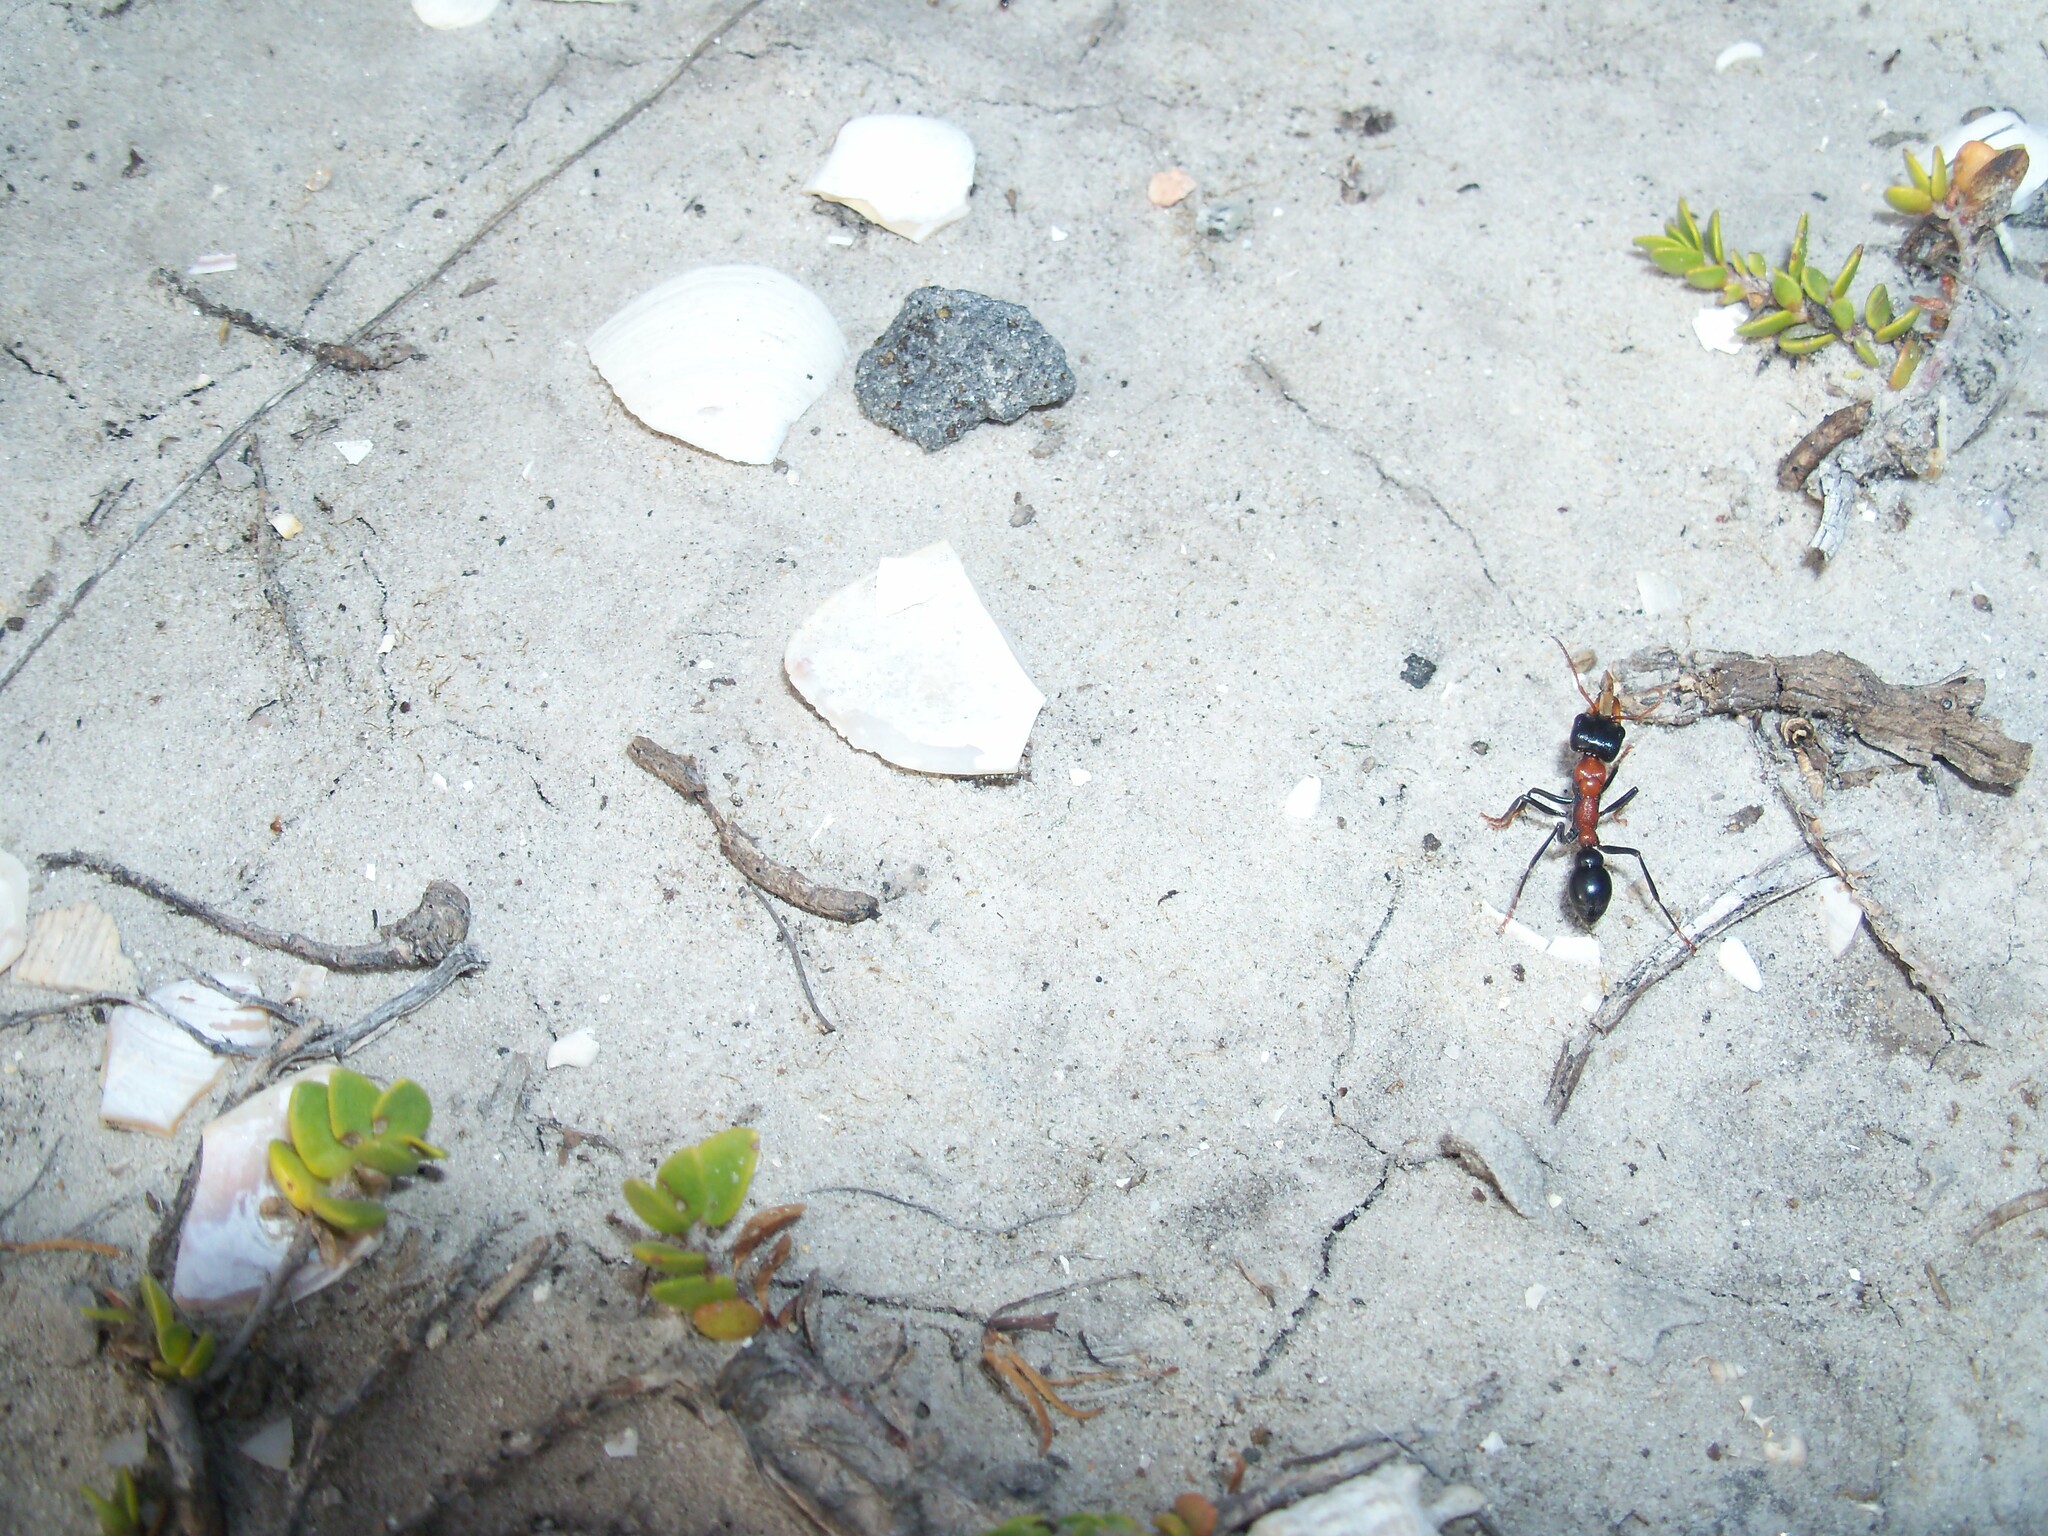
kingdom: Animalia
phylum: Arthropoda
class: Insecta
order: Hymenoptera
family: Formicidae
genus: Myrmecia
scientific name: Myrmecia nobilis
